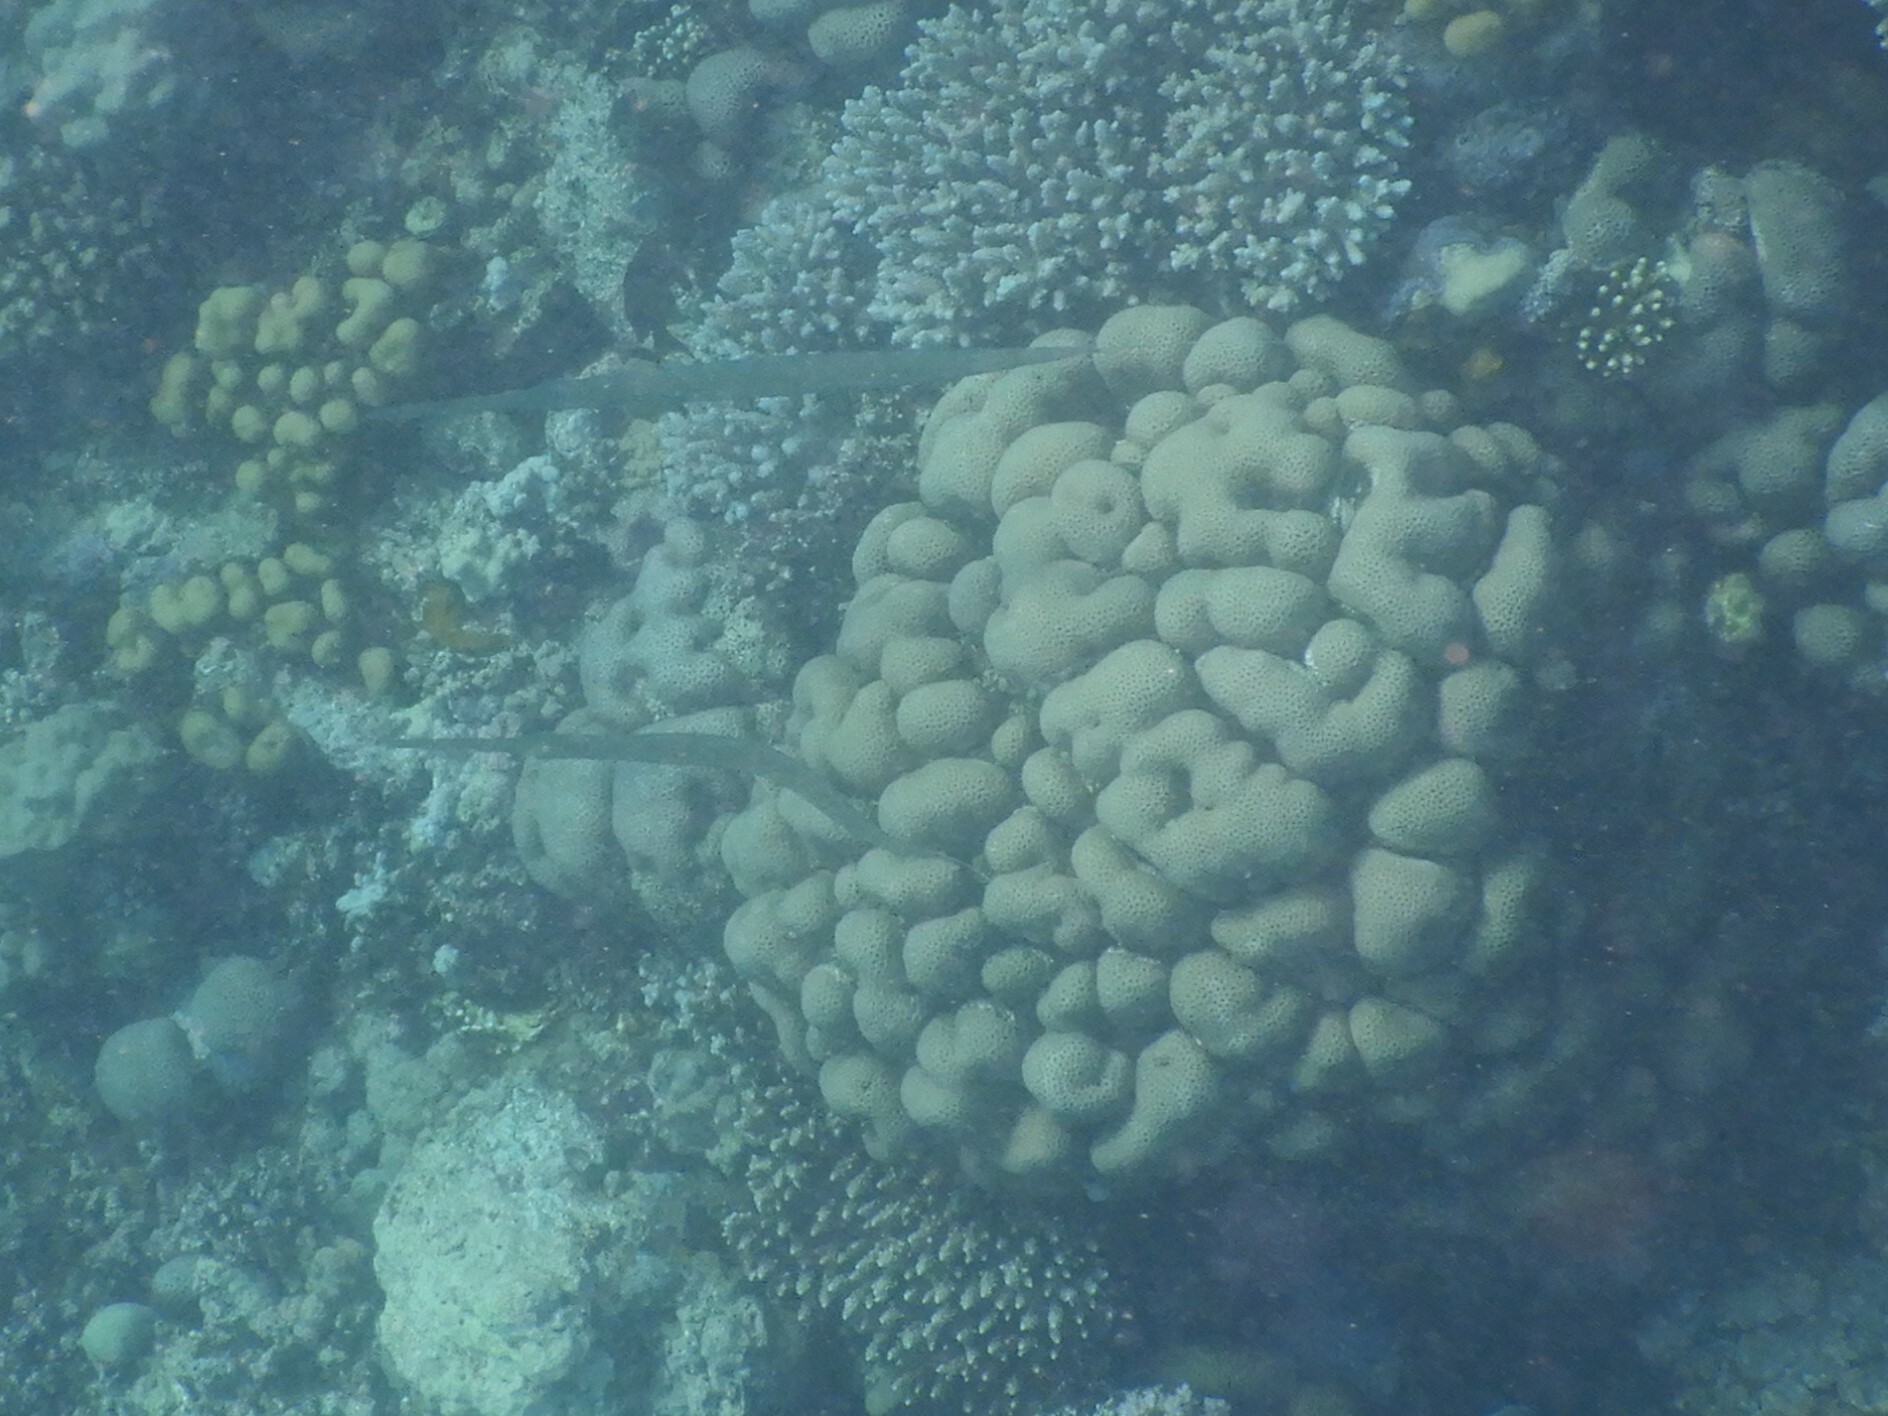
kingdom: Animalia
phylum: Chordata
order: Syngnathiformes
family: Fistulariidae
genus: Fistularia
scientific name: Fistularia commersonii
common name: Bluespotted cornetfish
